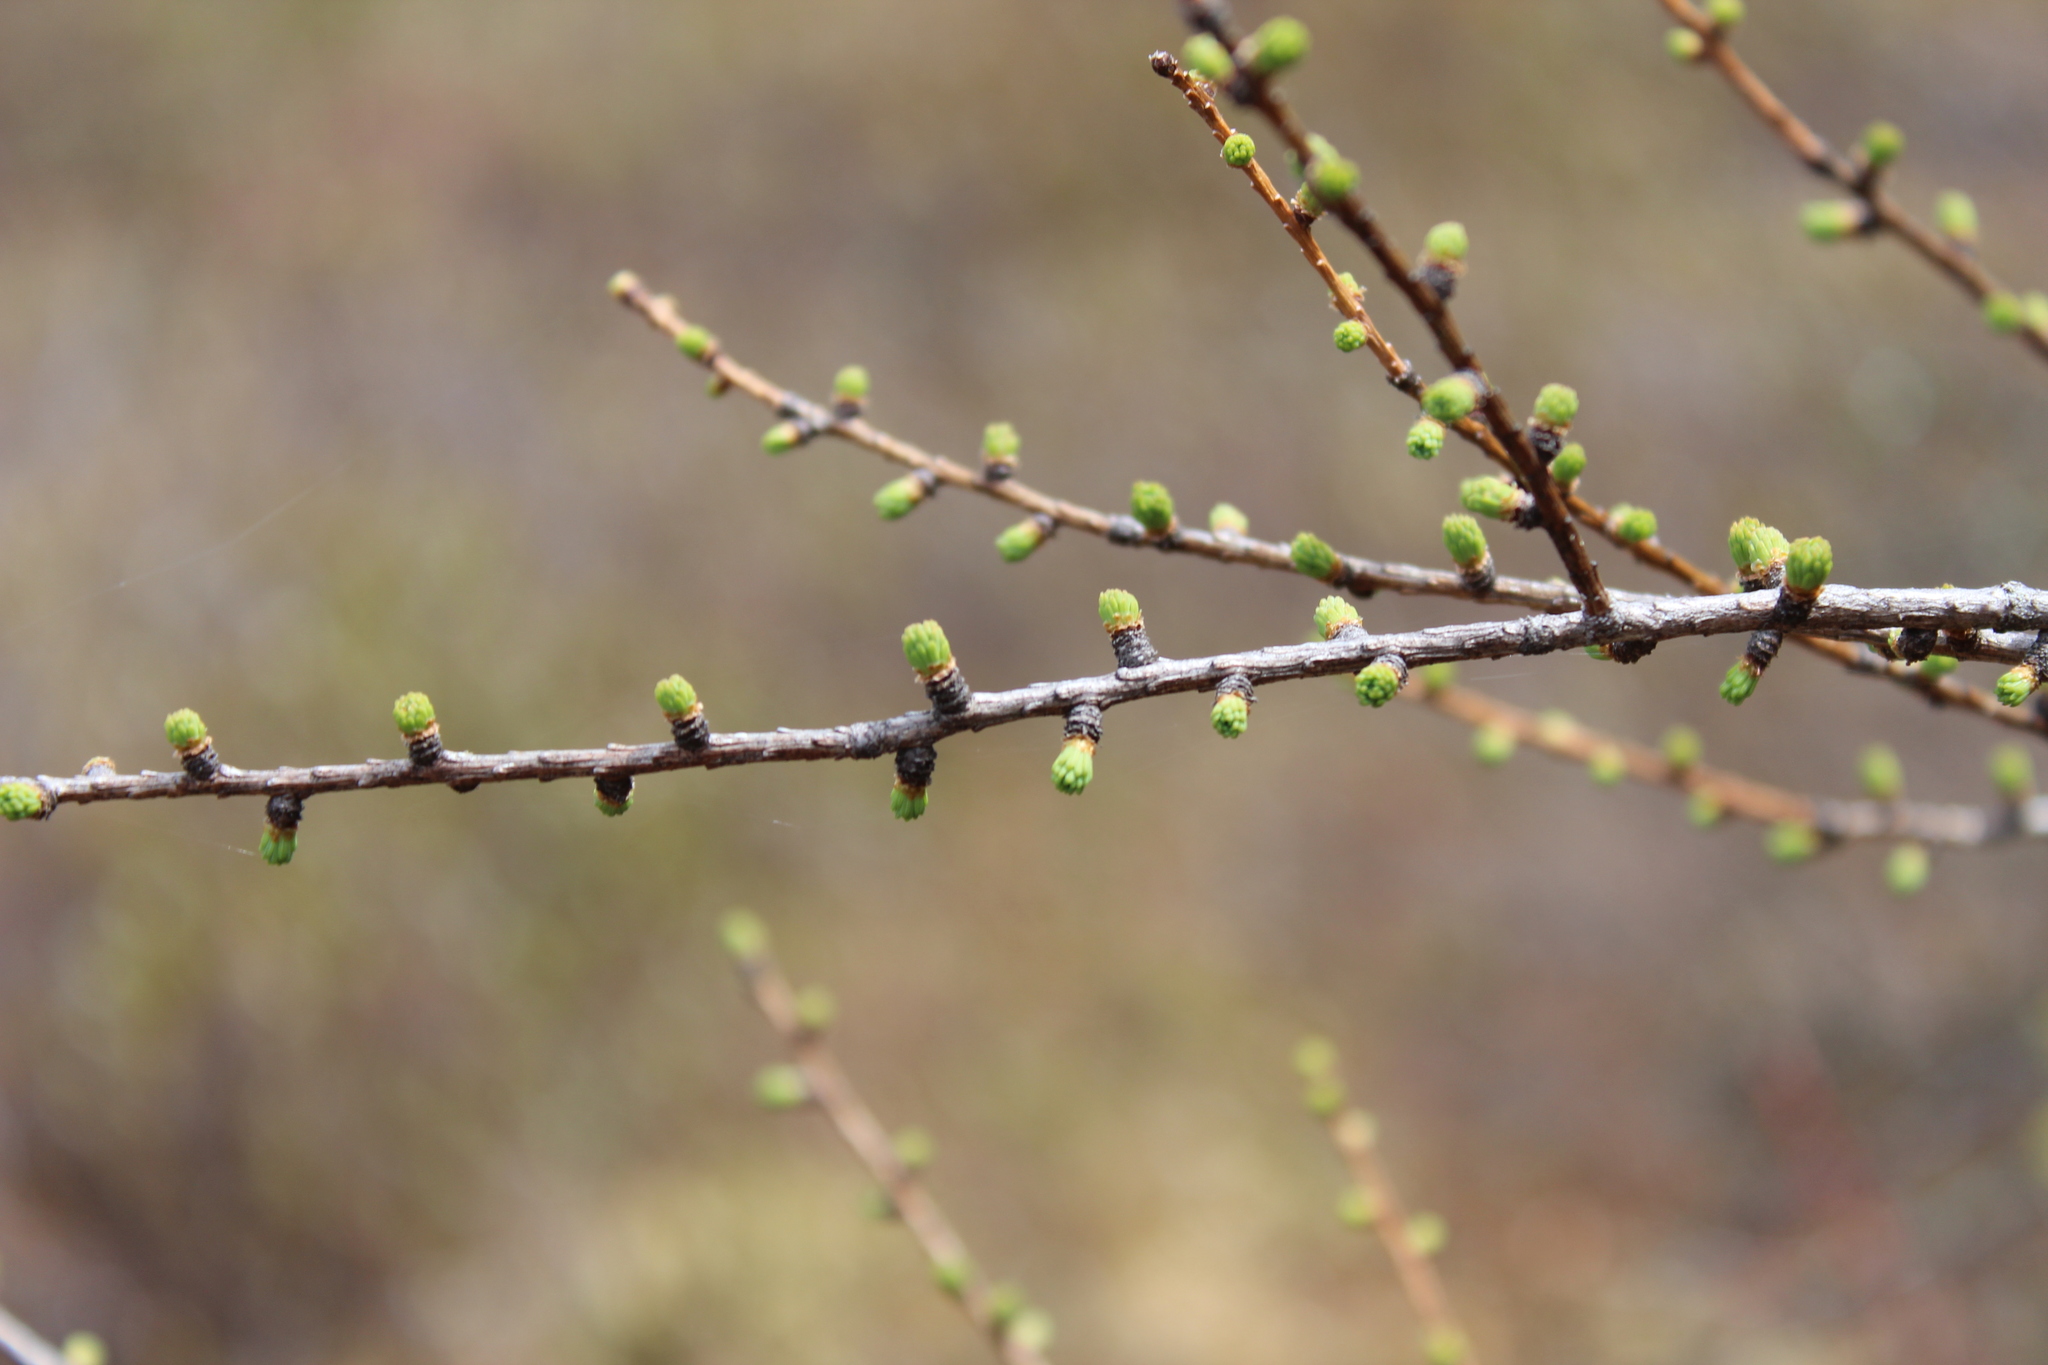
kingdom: Plantae
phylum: Tracheophyta
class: Pinopsida
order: Pinales
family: Pinaceae
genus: Larix
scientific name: Larix laricina
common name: American larch
